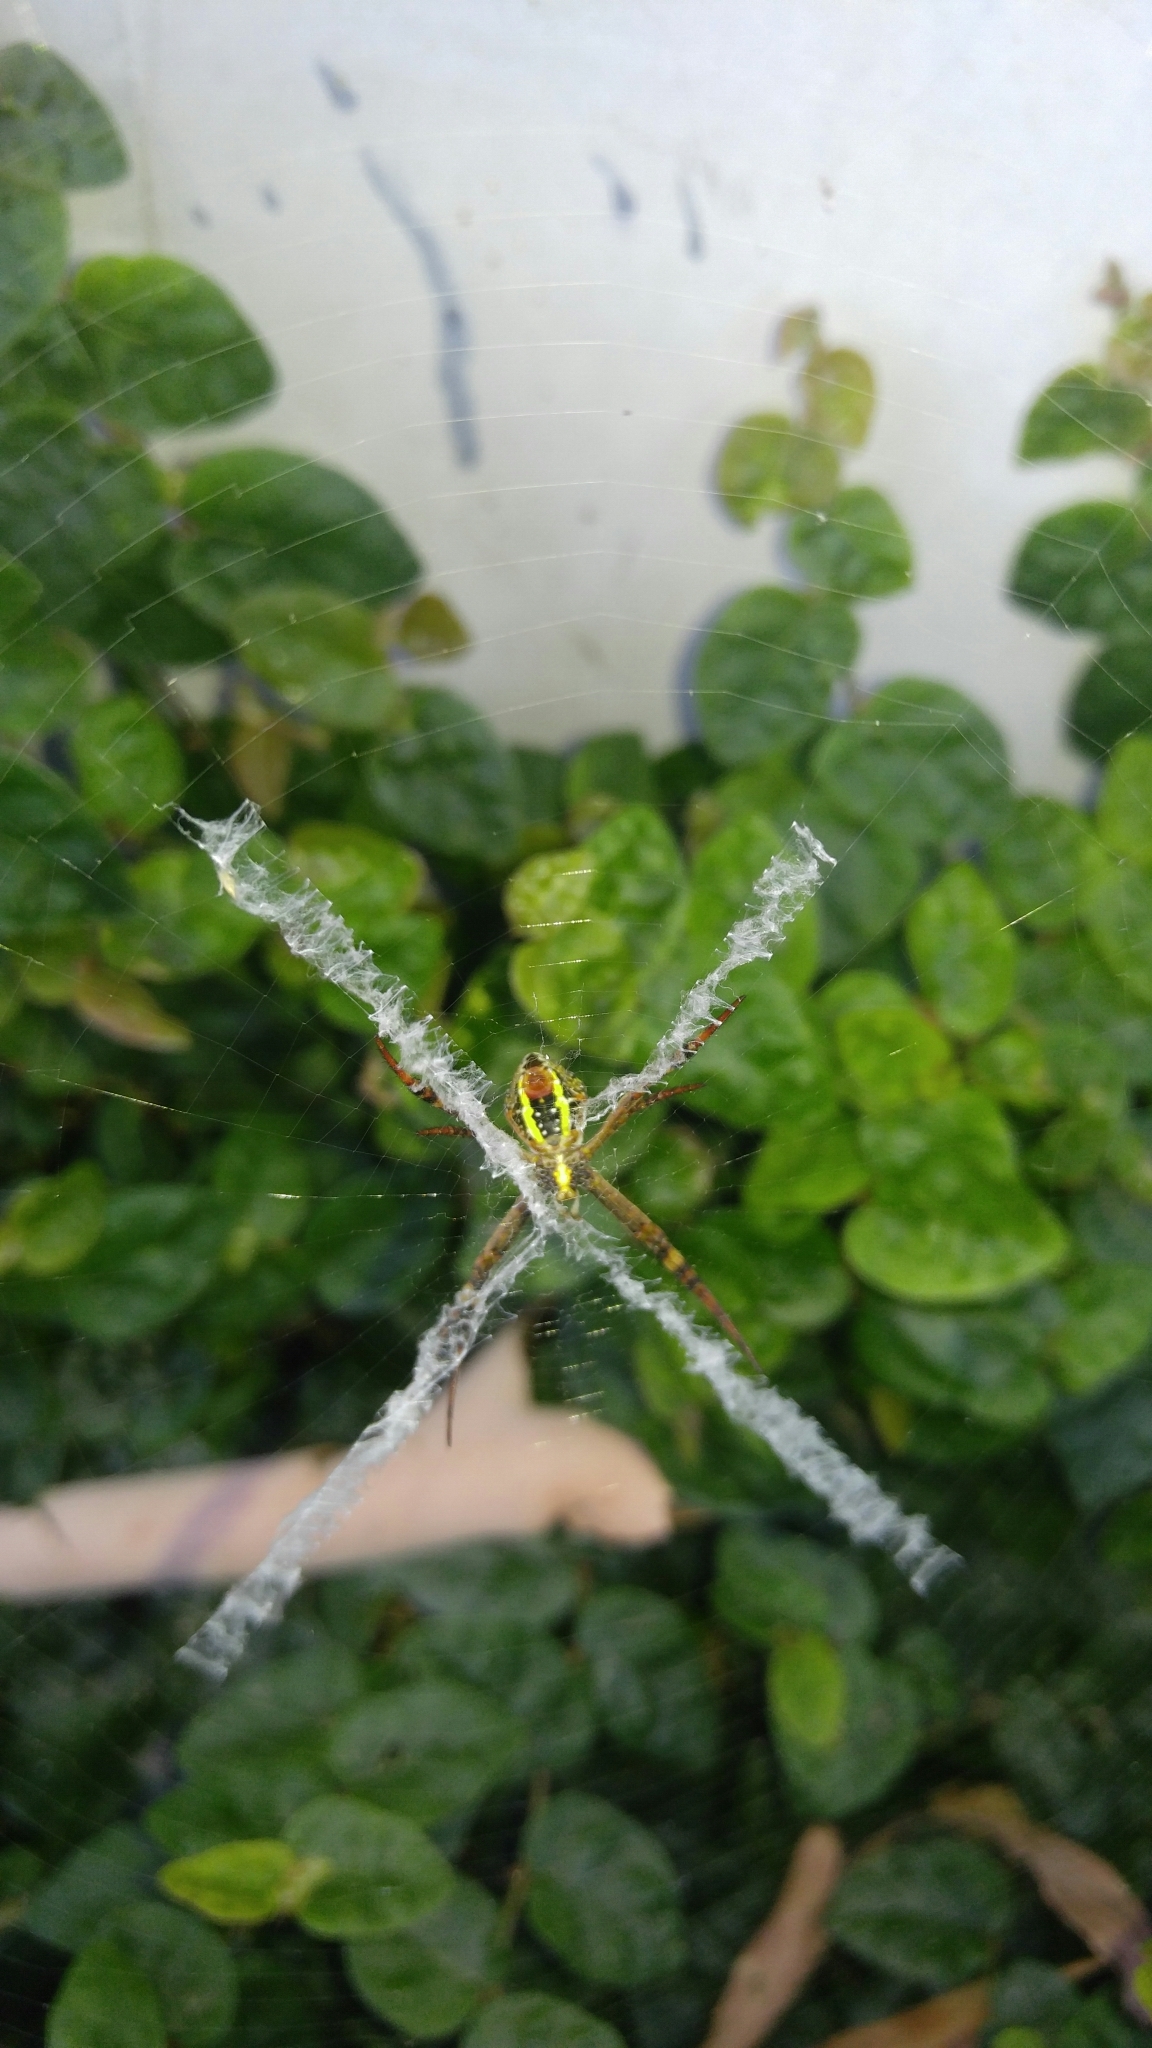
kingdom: Animalia
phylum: Arthropoda
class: Arachnida
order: Araneae
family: Araneidae
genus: Argiope
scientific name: Argiope keyserlingi
